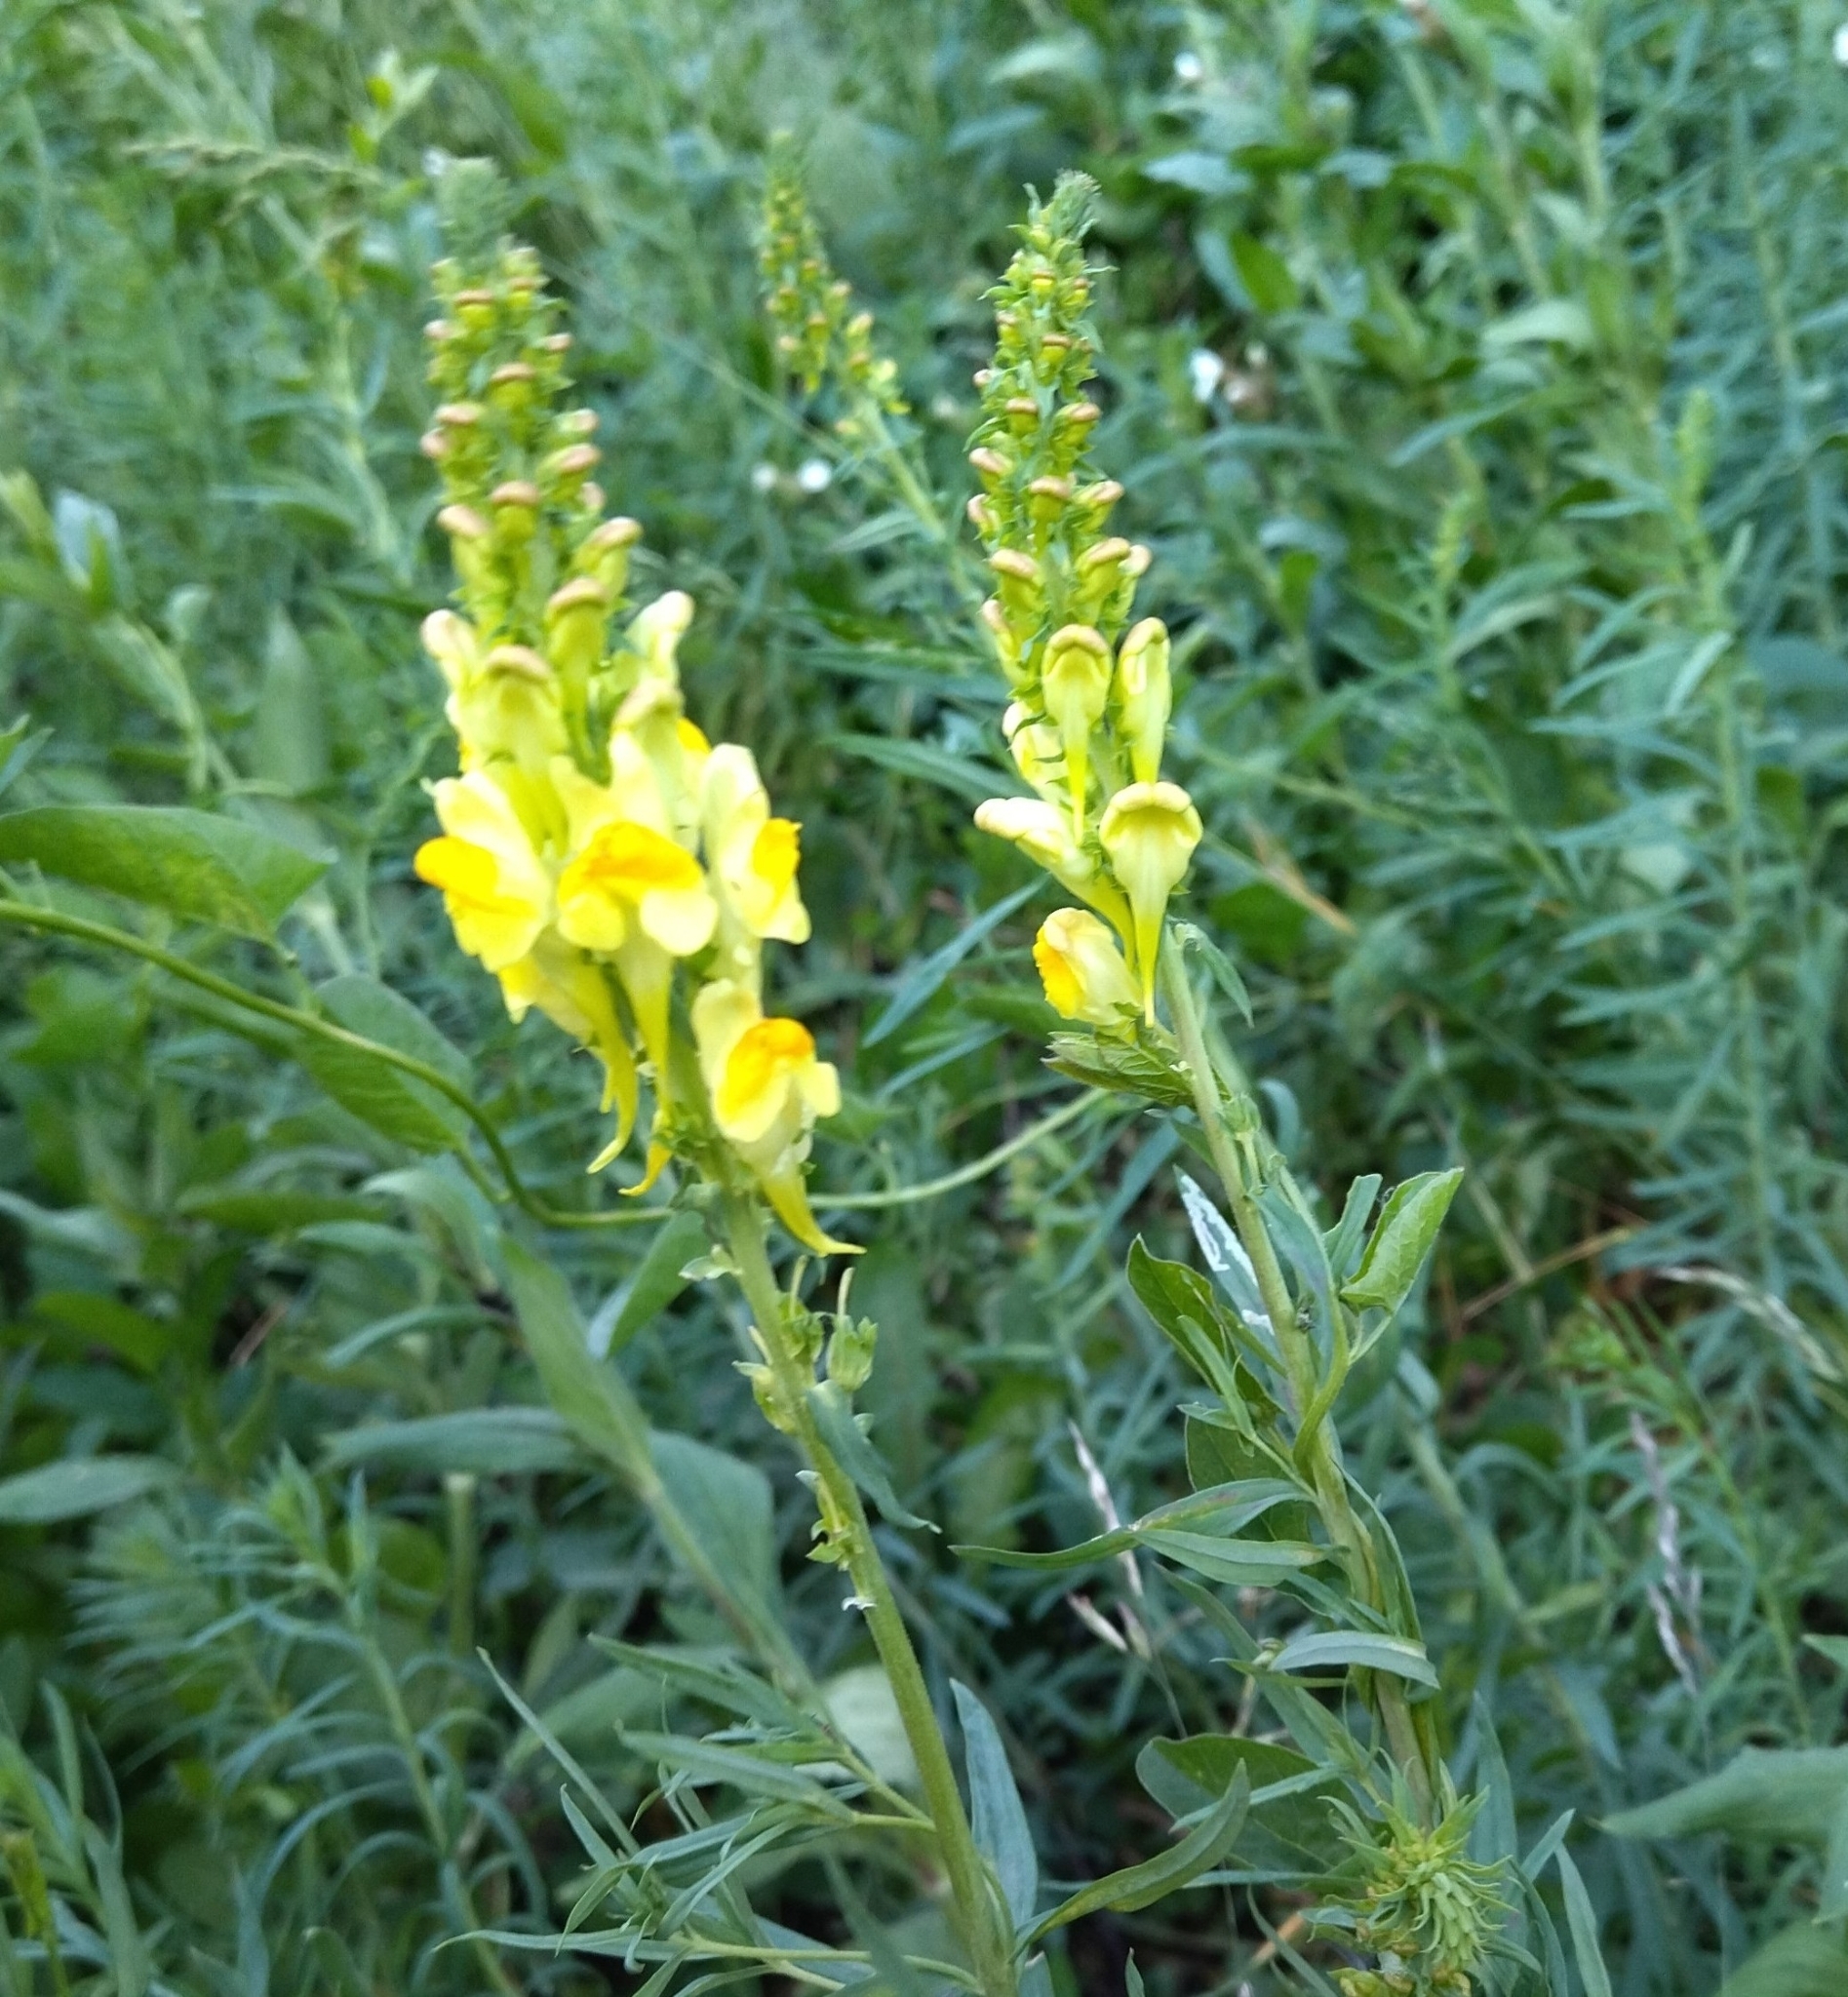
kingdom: Plantae
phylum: Tracheophyta
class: Magnoliopsida
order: Lamiales
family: Plantaginaceae
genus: Linaria
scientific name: Linaria vulgaris
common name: Butter and eggs
